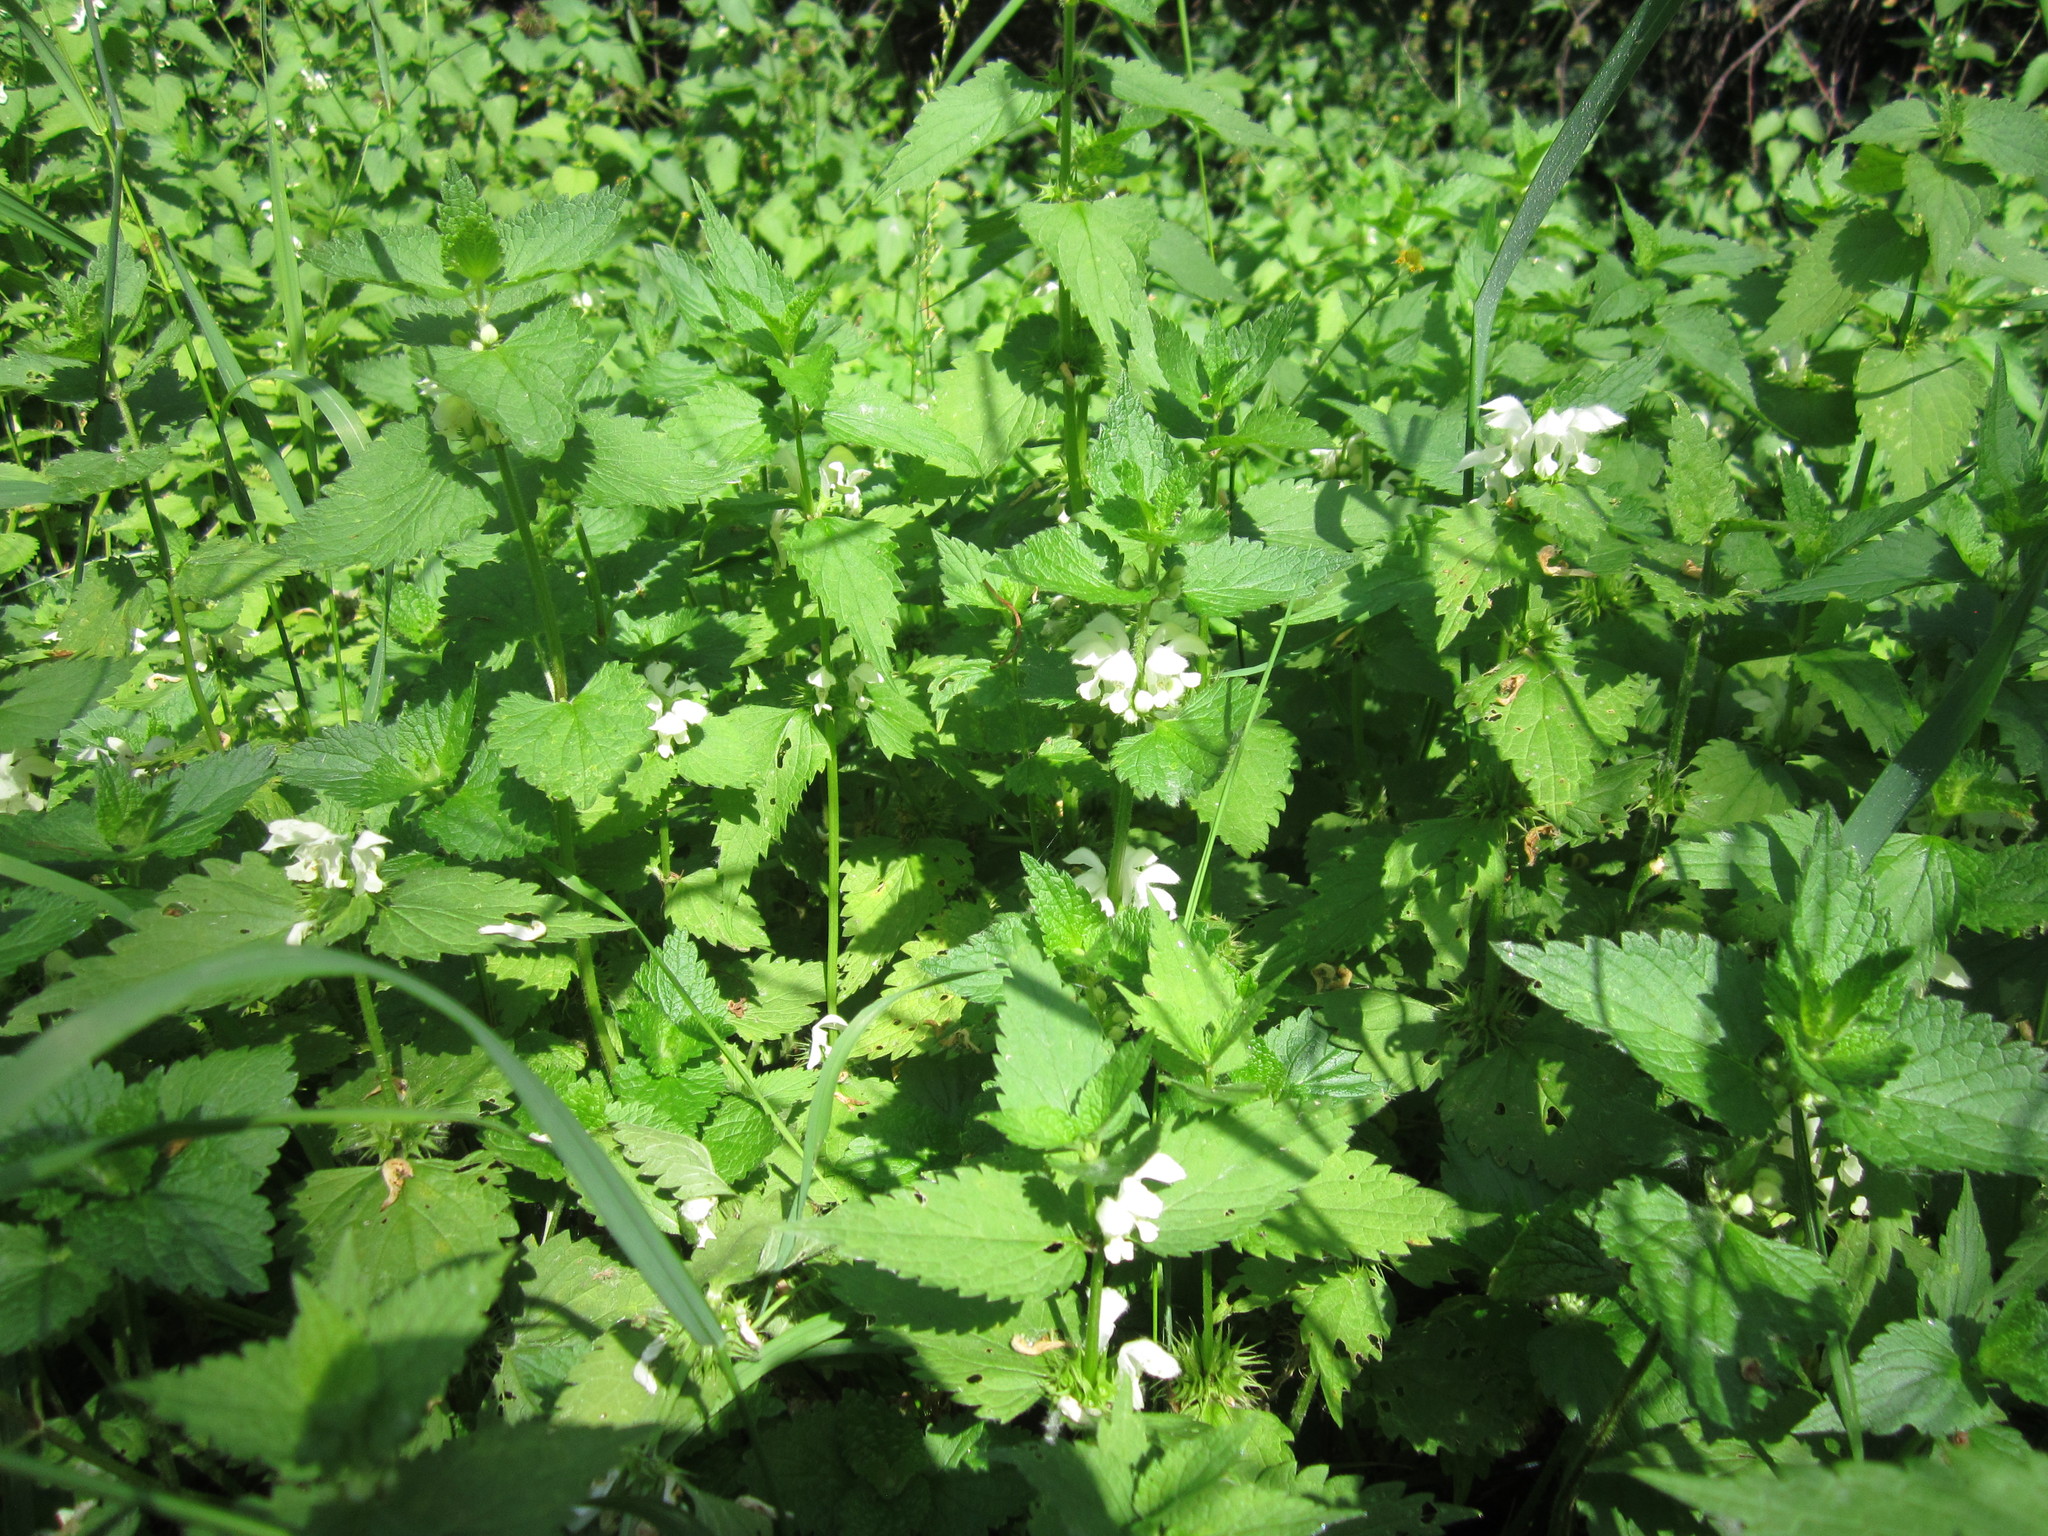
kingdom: Plantae
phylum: Tracheophyta
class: Magnoliopsida
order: Lamiales
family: Lamiaceae
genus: Lamium
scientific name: Lamium album
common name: White dead-nettle
